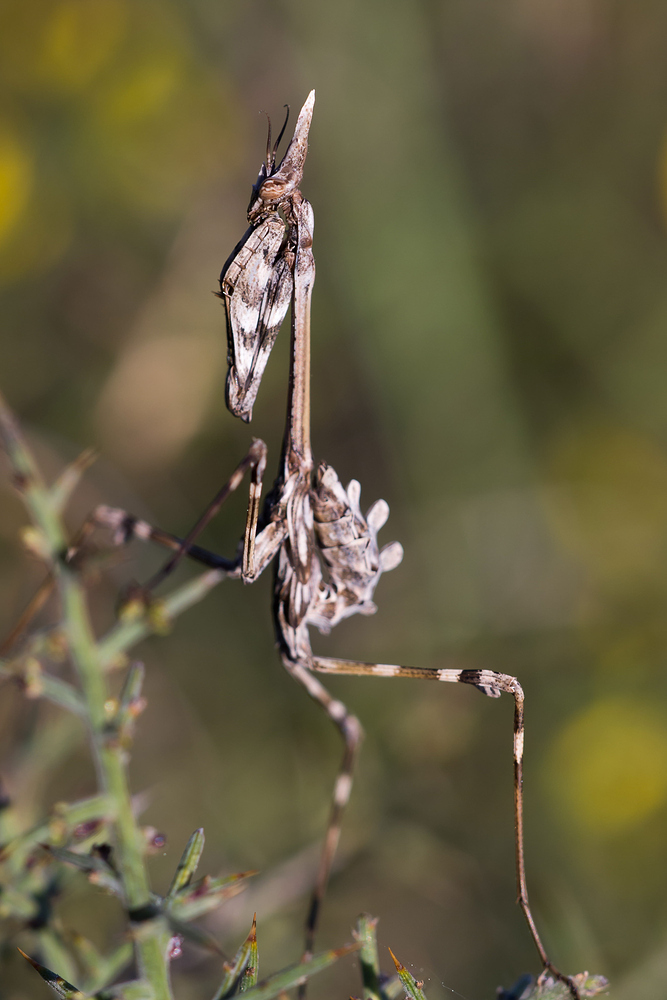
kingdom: Animalia
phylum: Arthropoda
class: Insecta
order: Mantodea
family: Empusidae
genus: Empusa
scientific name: Empusa pennata
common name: Conehead mantis
